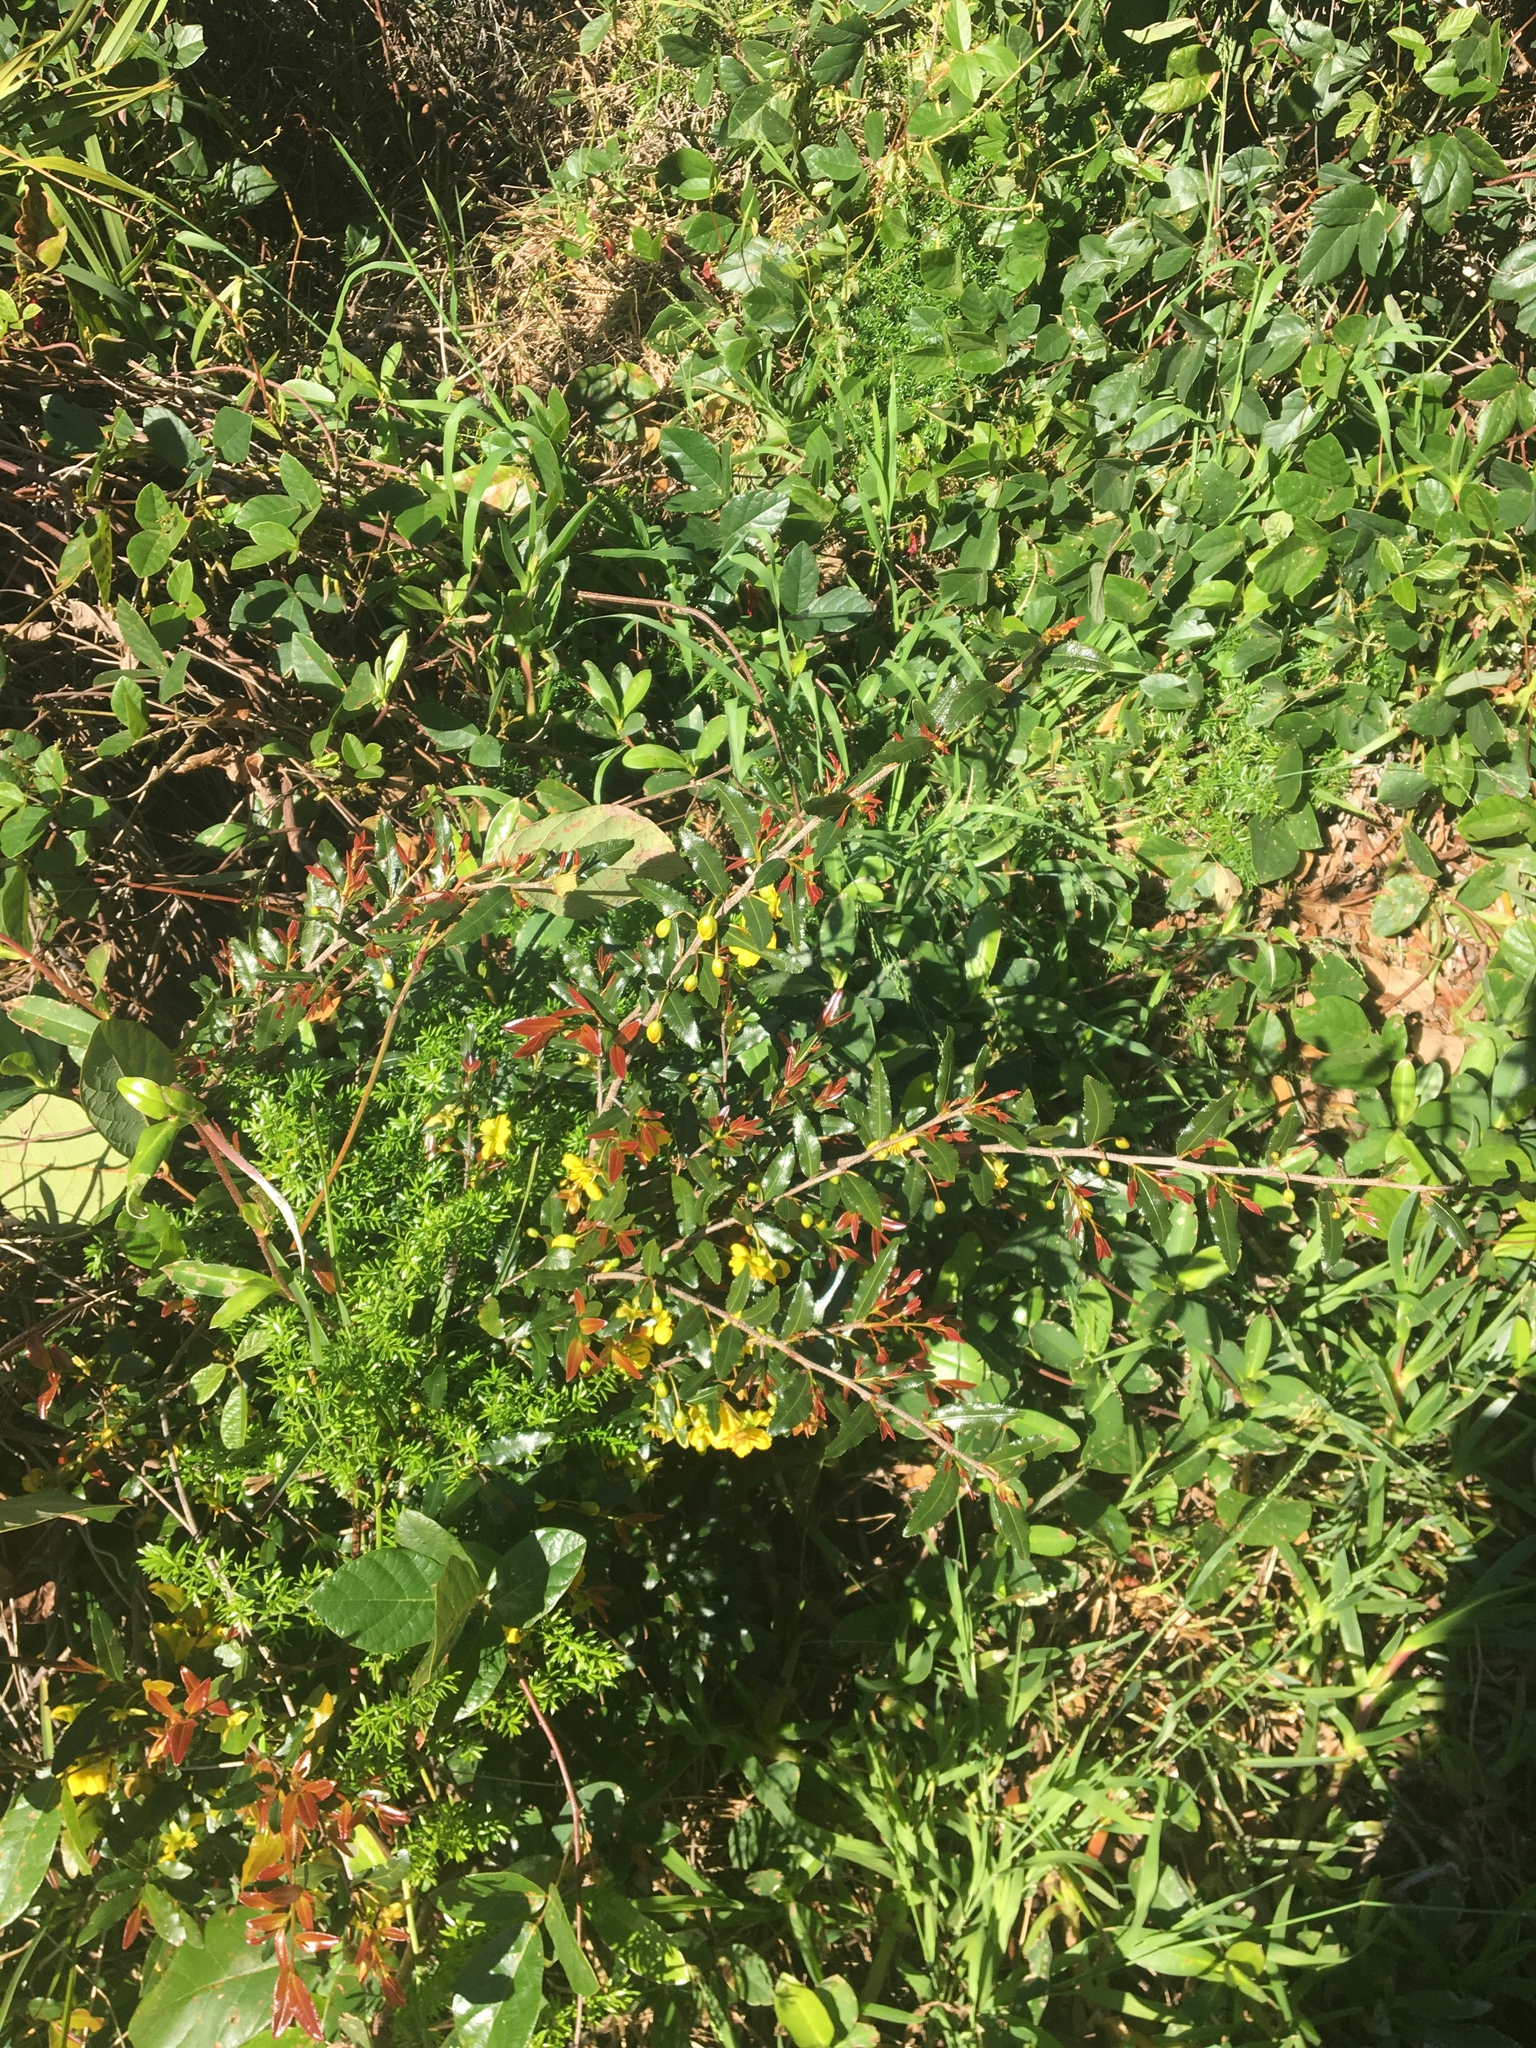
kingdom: Plantae
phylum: Tracheophyta
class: Magnoliopsida
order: Malpighiales
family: Ochnaceae
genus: Ochna
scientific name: Ochna serrulata
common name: Mickey mouse plant
